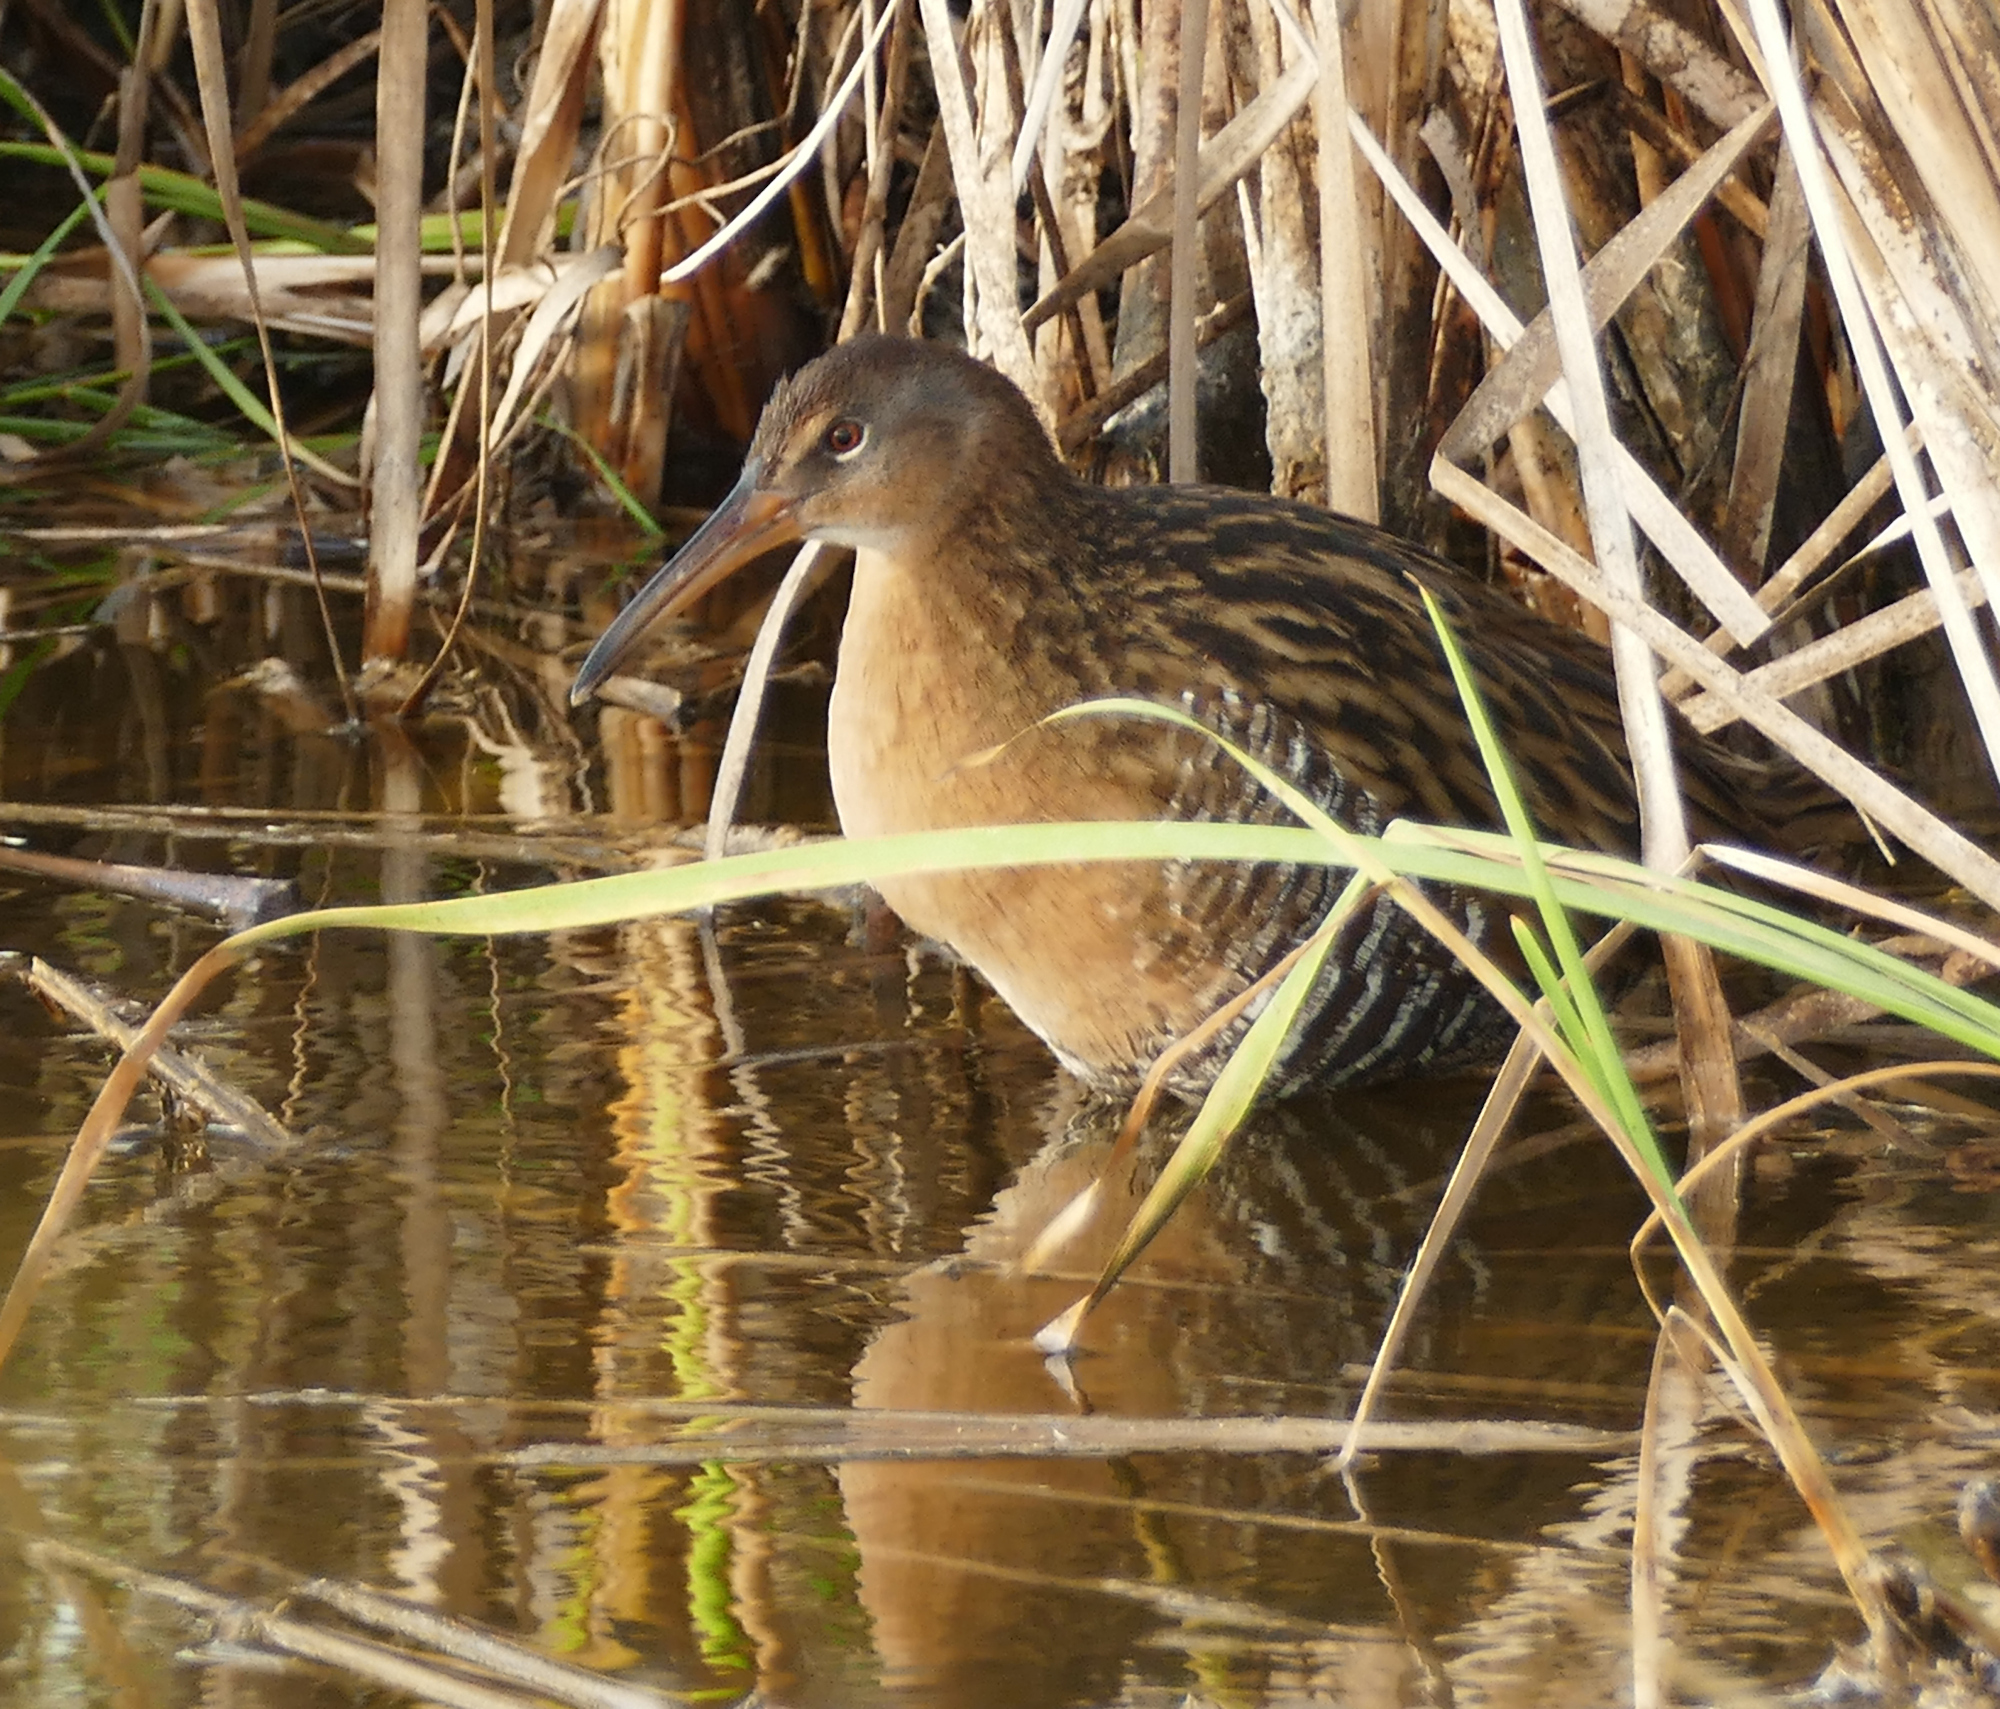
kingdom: Animalia
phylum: Chordata
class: Aves
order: Gruiformes
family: Rallidae
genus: Rallus
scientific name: Rallus elegans
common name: King rail
